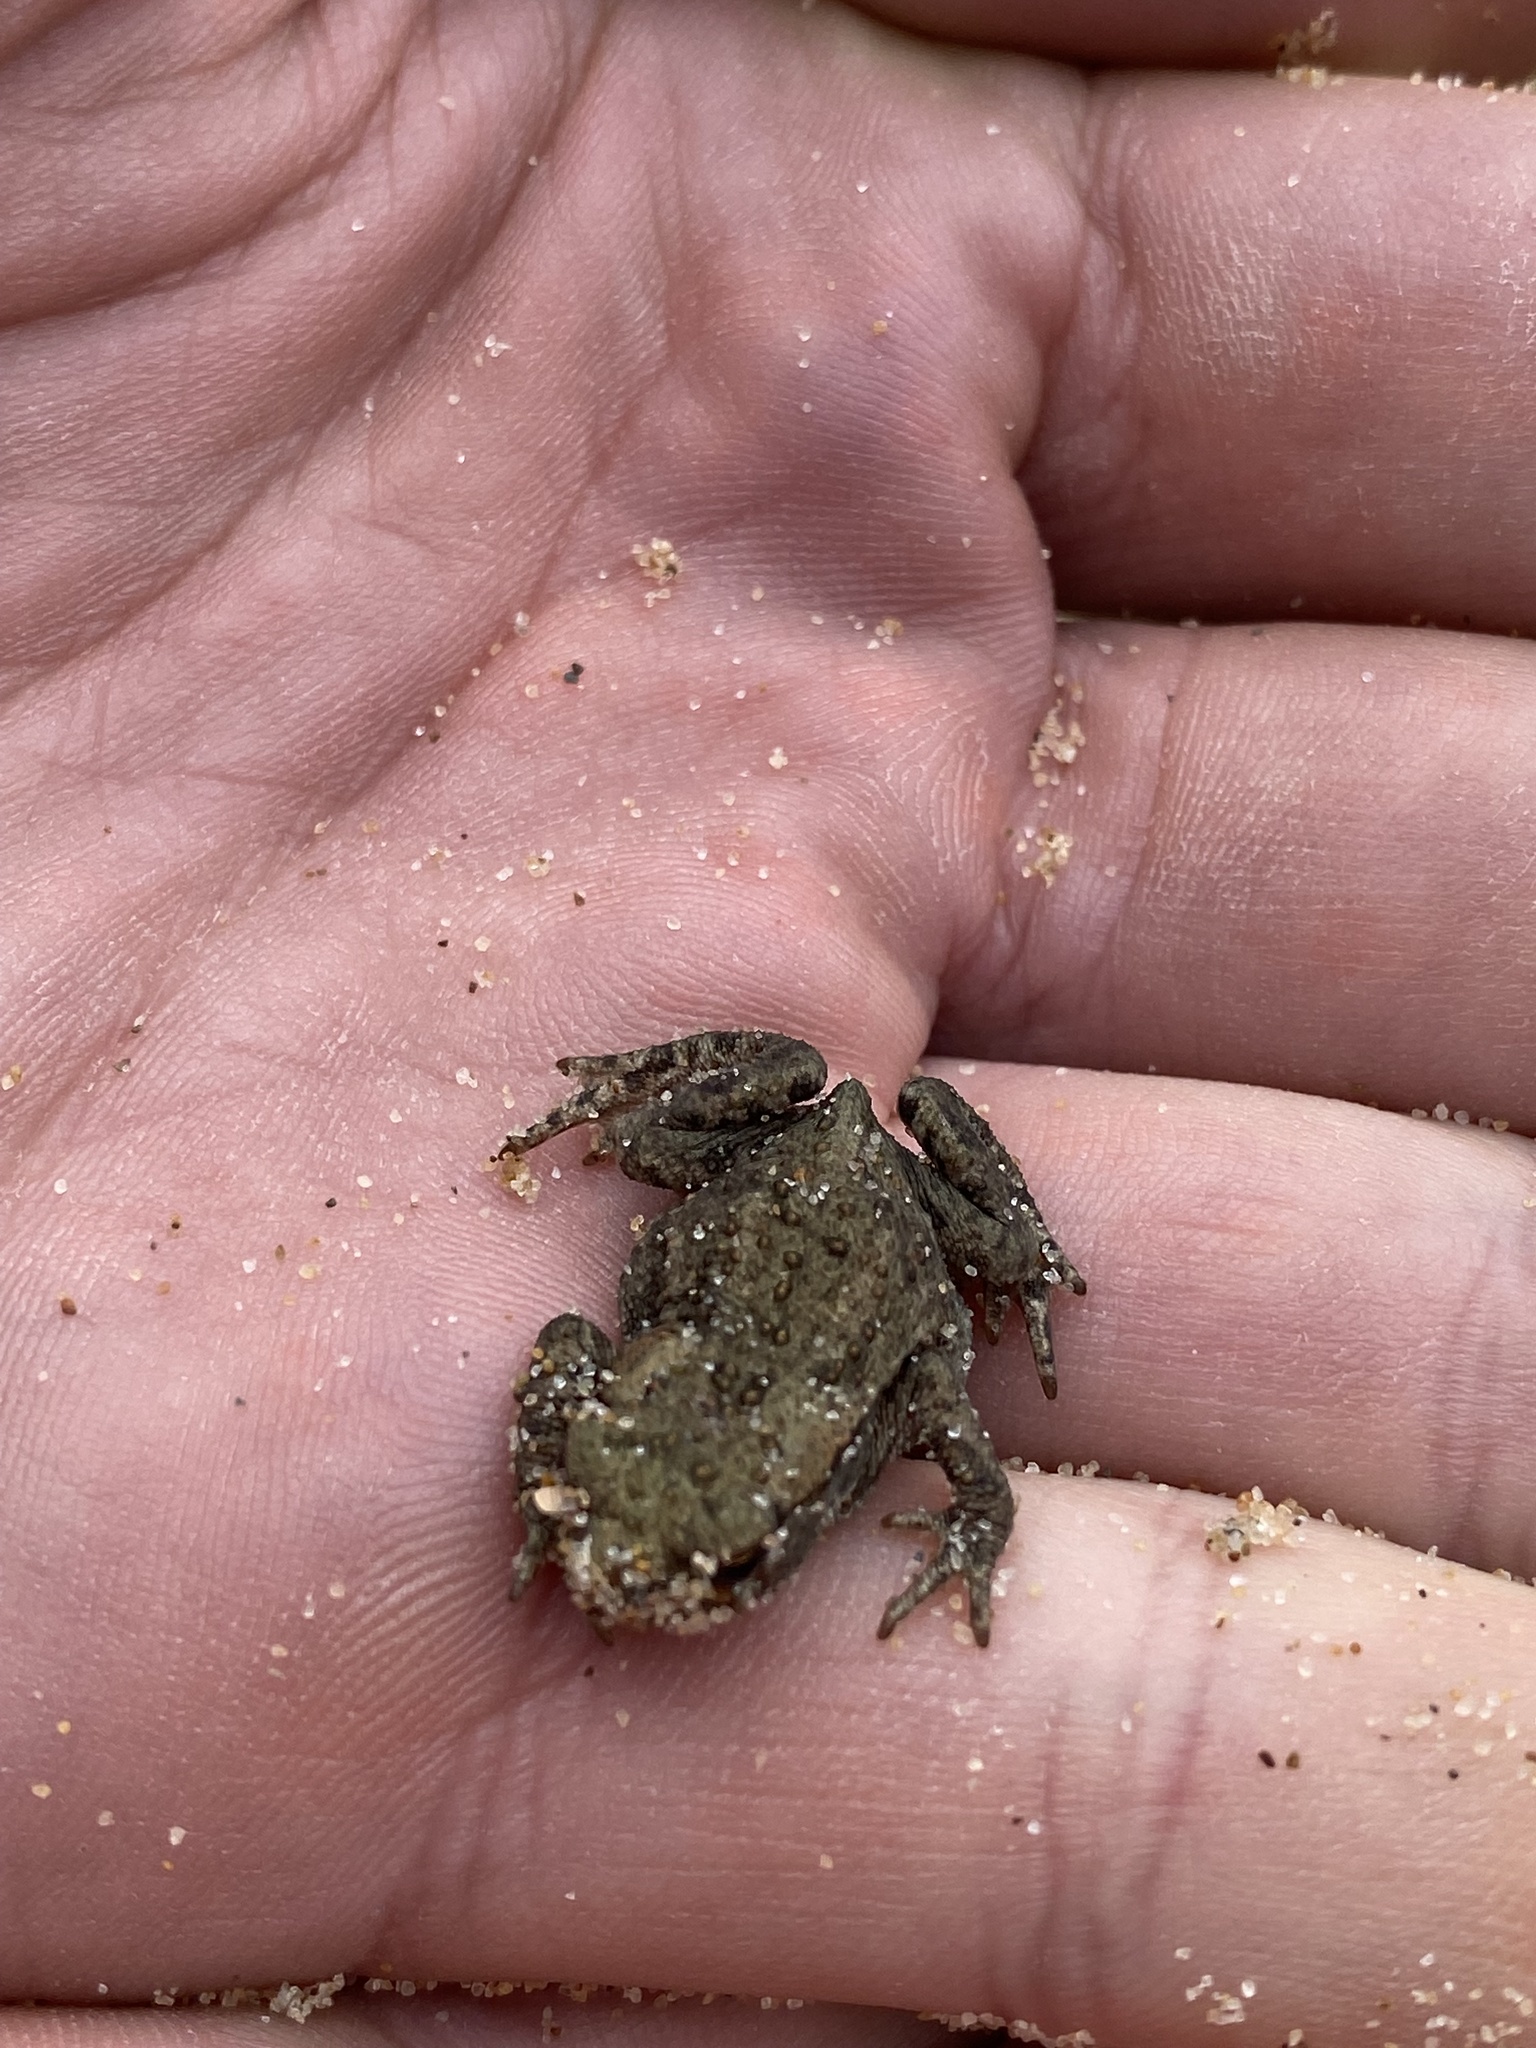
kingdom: Animalia
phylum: Chordata
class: Amphibia
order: Anura
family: Bufonidae
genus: Bufo
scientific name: Bufo bufo
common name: Common toad
